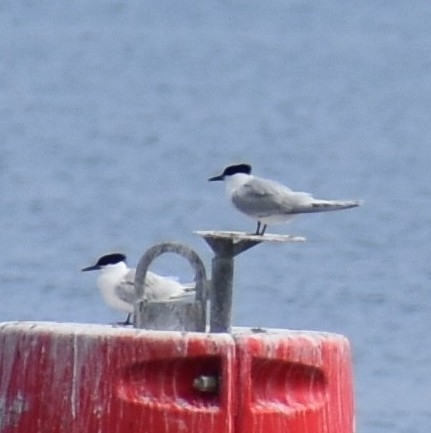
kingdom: Animalia
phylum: Chordata
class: Aves
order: Charadriiformes
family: Laridae
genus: Thalasseus
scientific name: Thalasseus sandvicensis
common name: Sandwich tern
